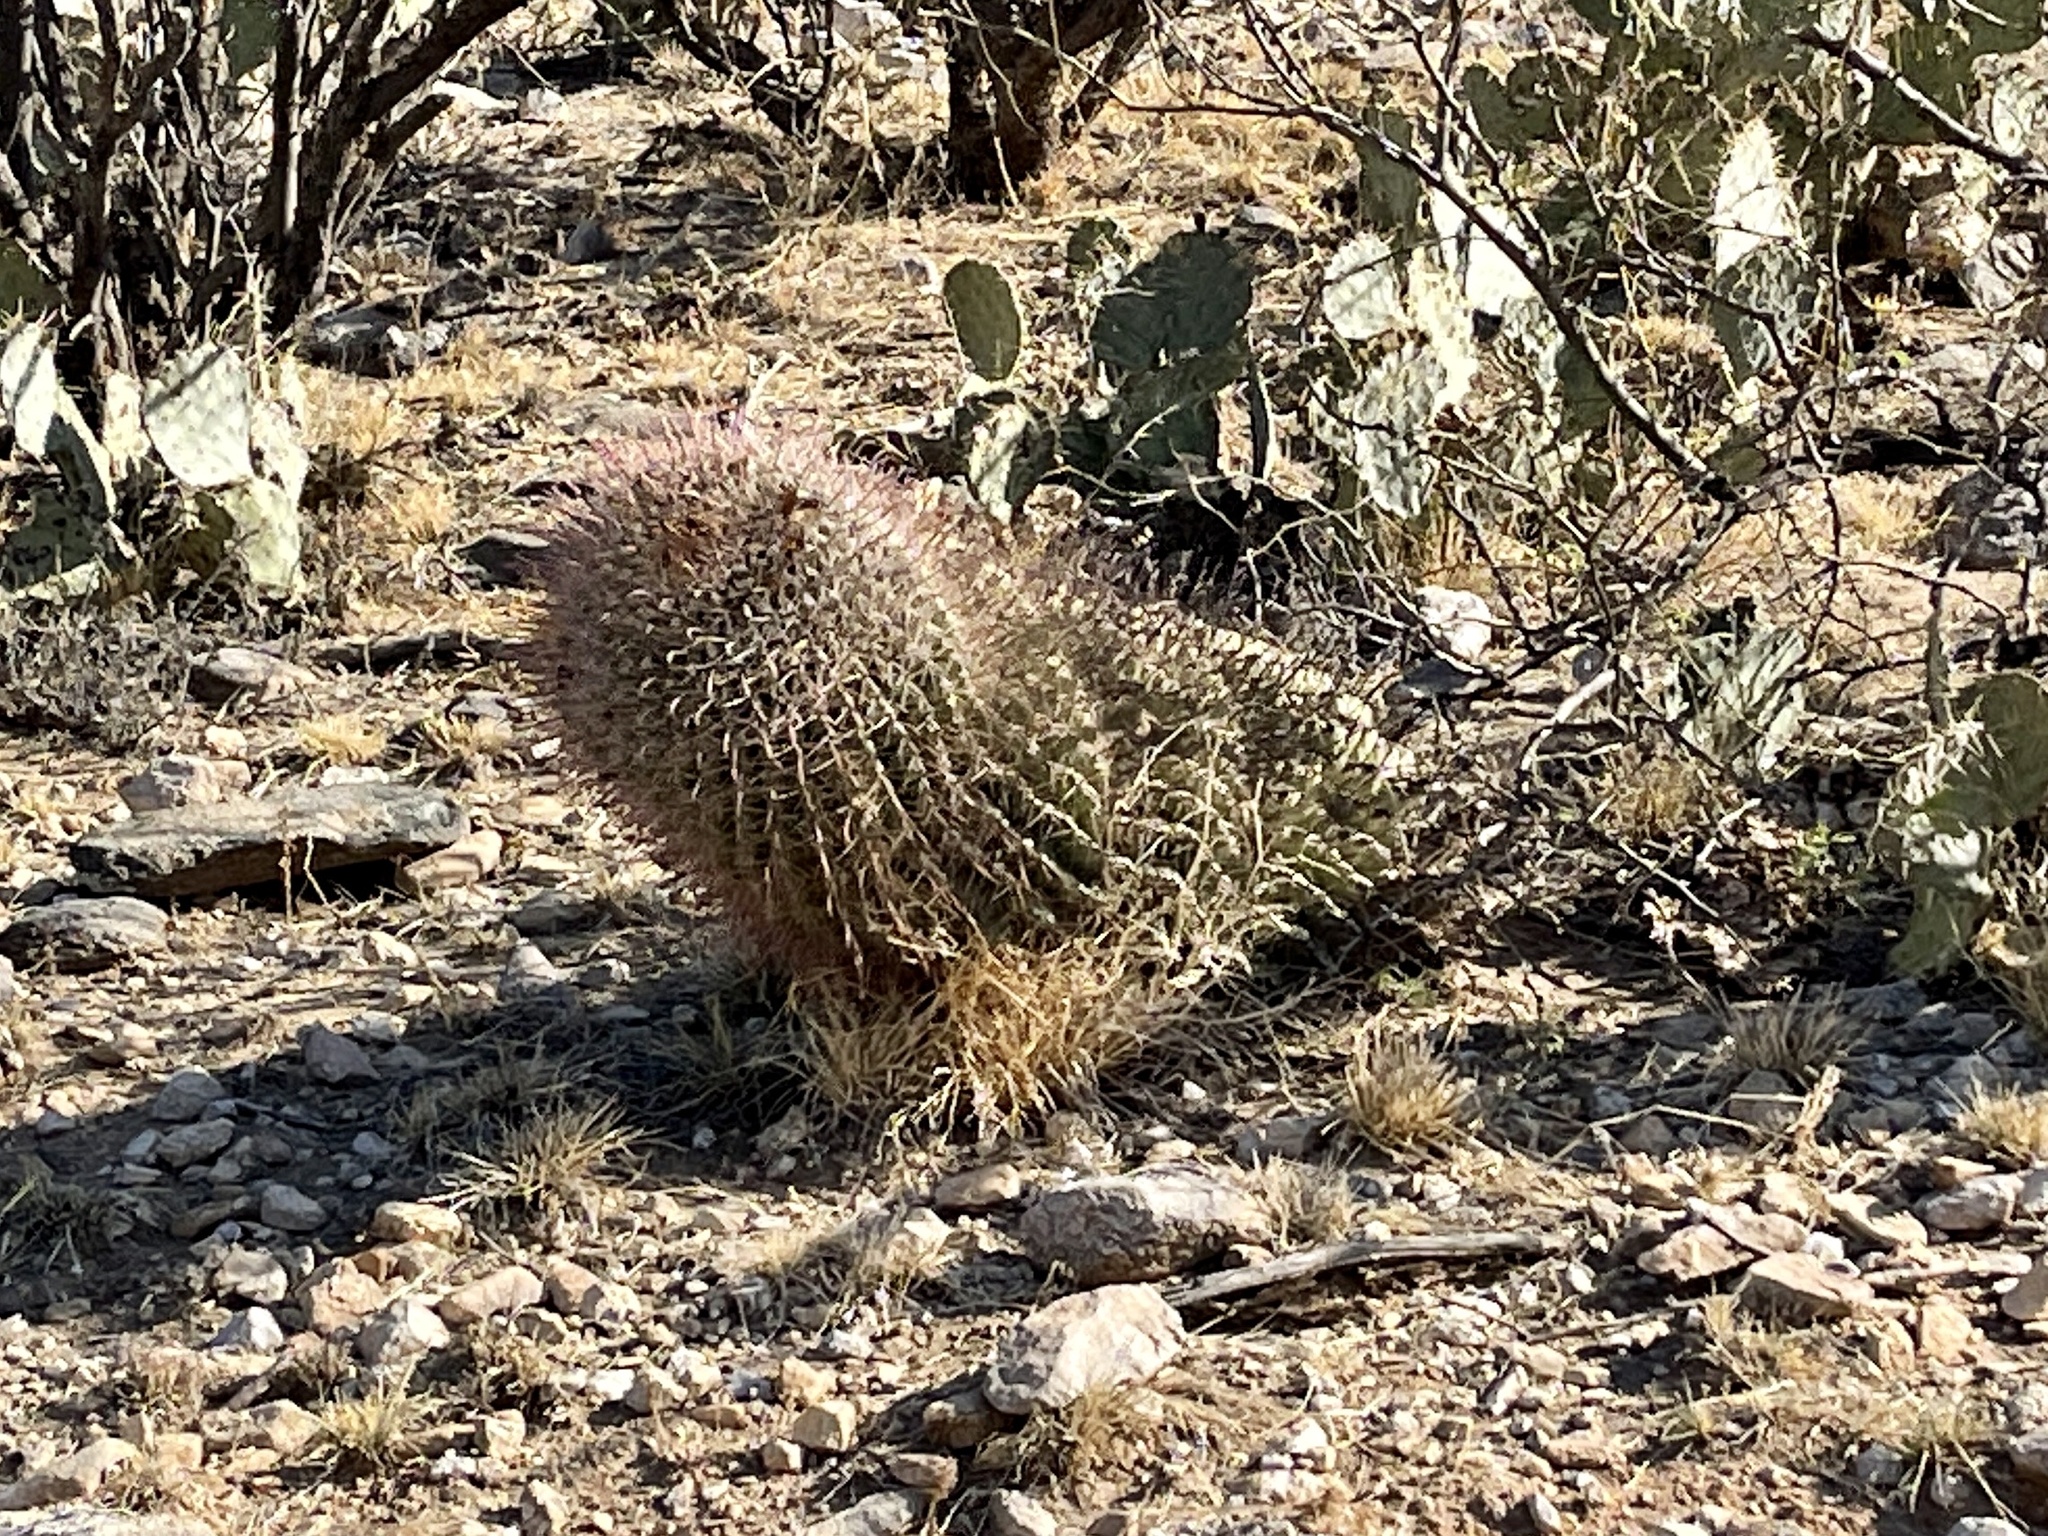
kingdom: Plantae
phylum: Tracheophyta
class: Magnoliopsida
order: Caryophyllales
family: Cactaceae
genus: Ferocactus
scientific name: Ferocactus wislizeni
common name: Candy barrel cactus
